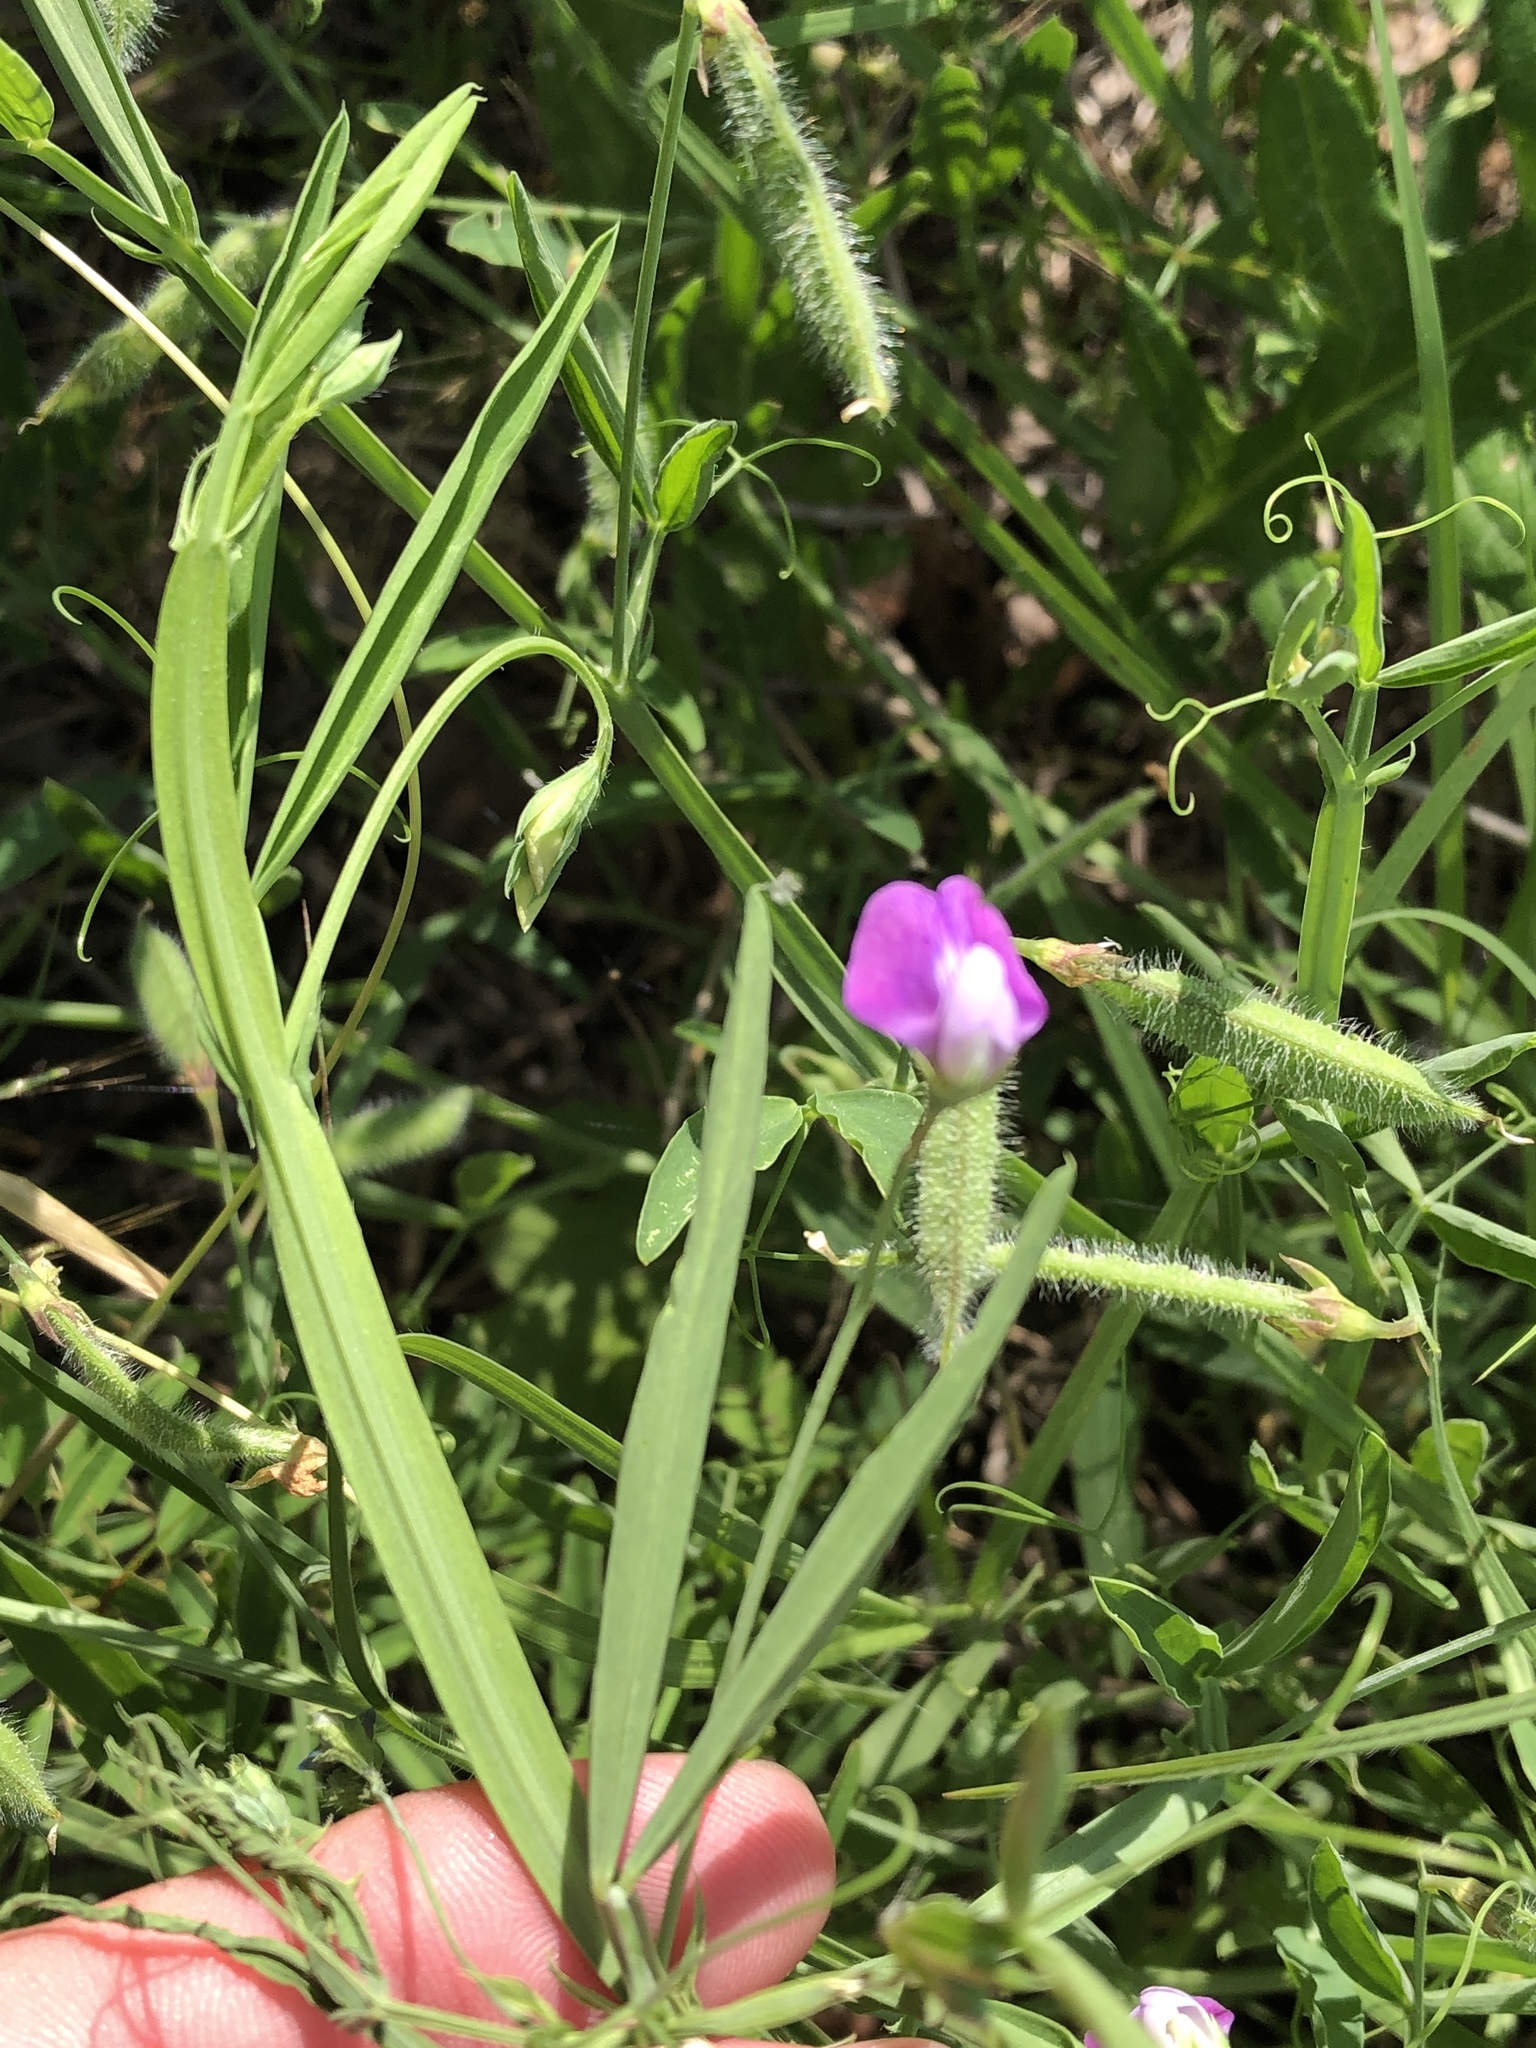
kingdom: Plantae
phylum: Tracheophyta
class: Magnoliopsida
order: Fabales
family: Fabaceae
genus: Lathyrus
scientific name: Lathyrus hirsutus
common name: Hairy vetchling
